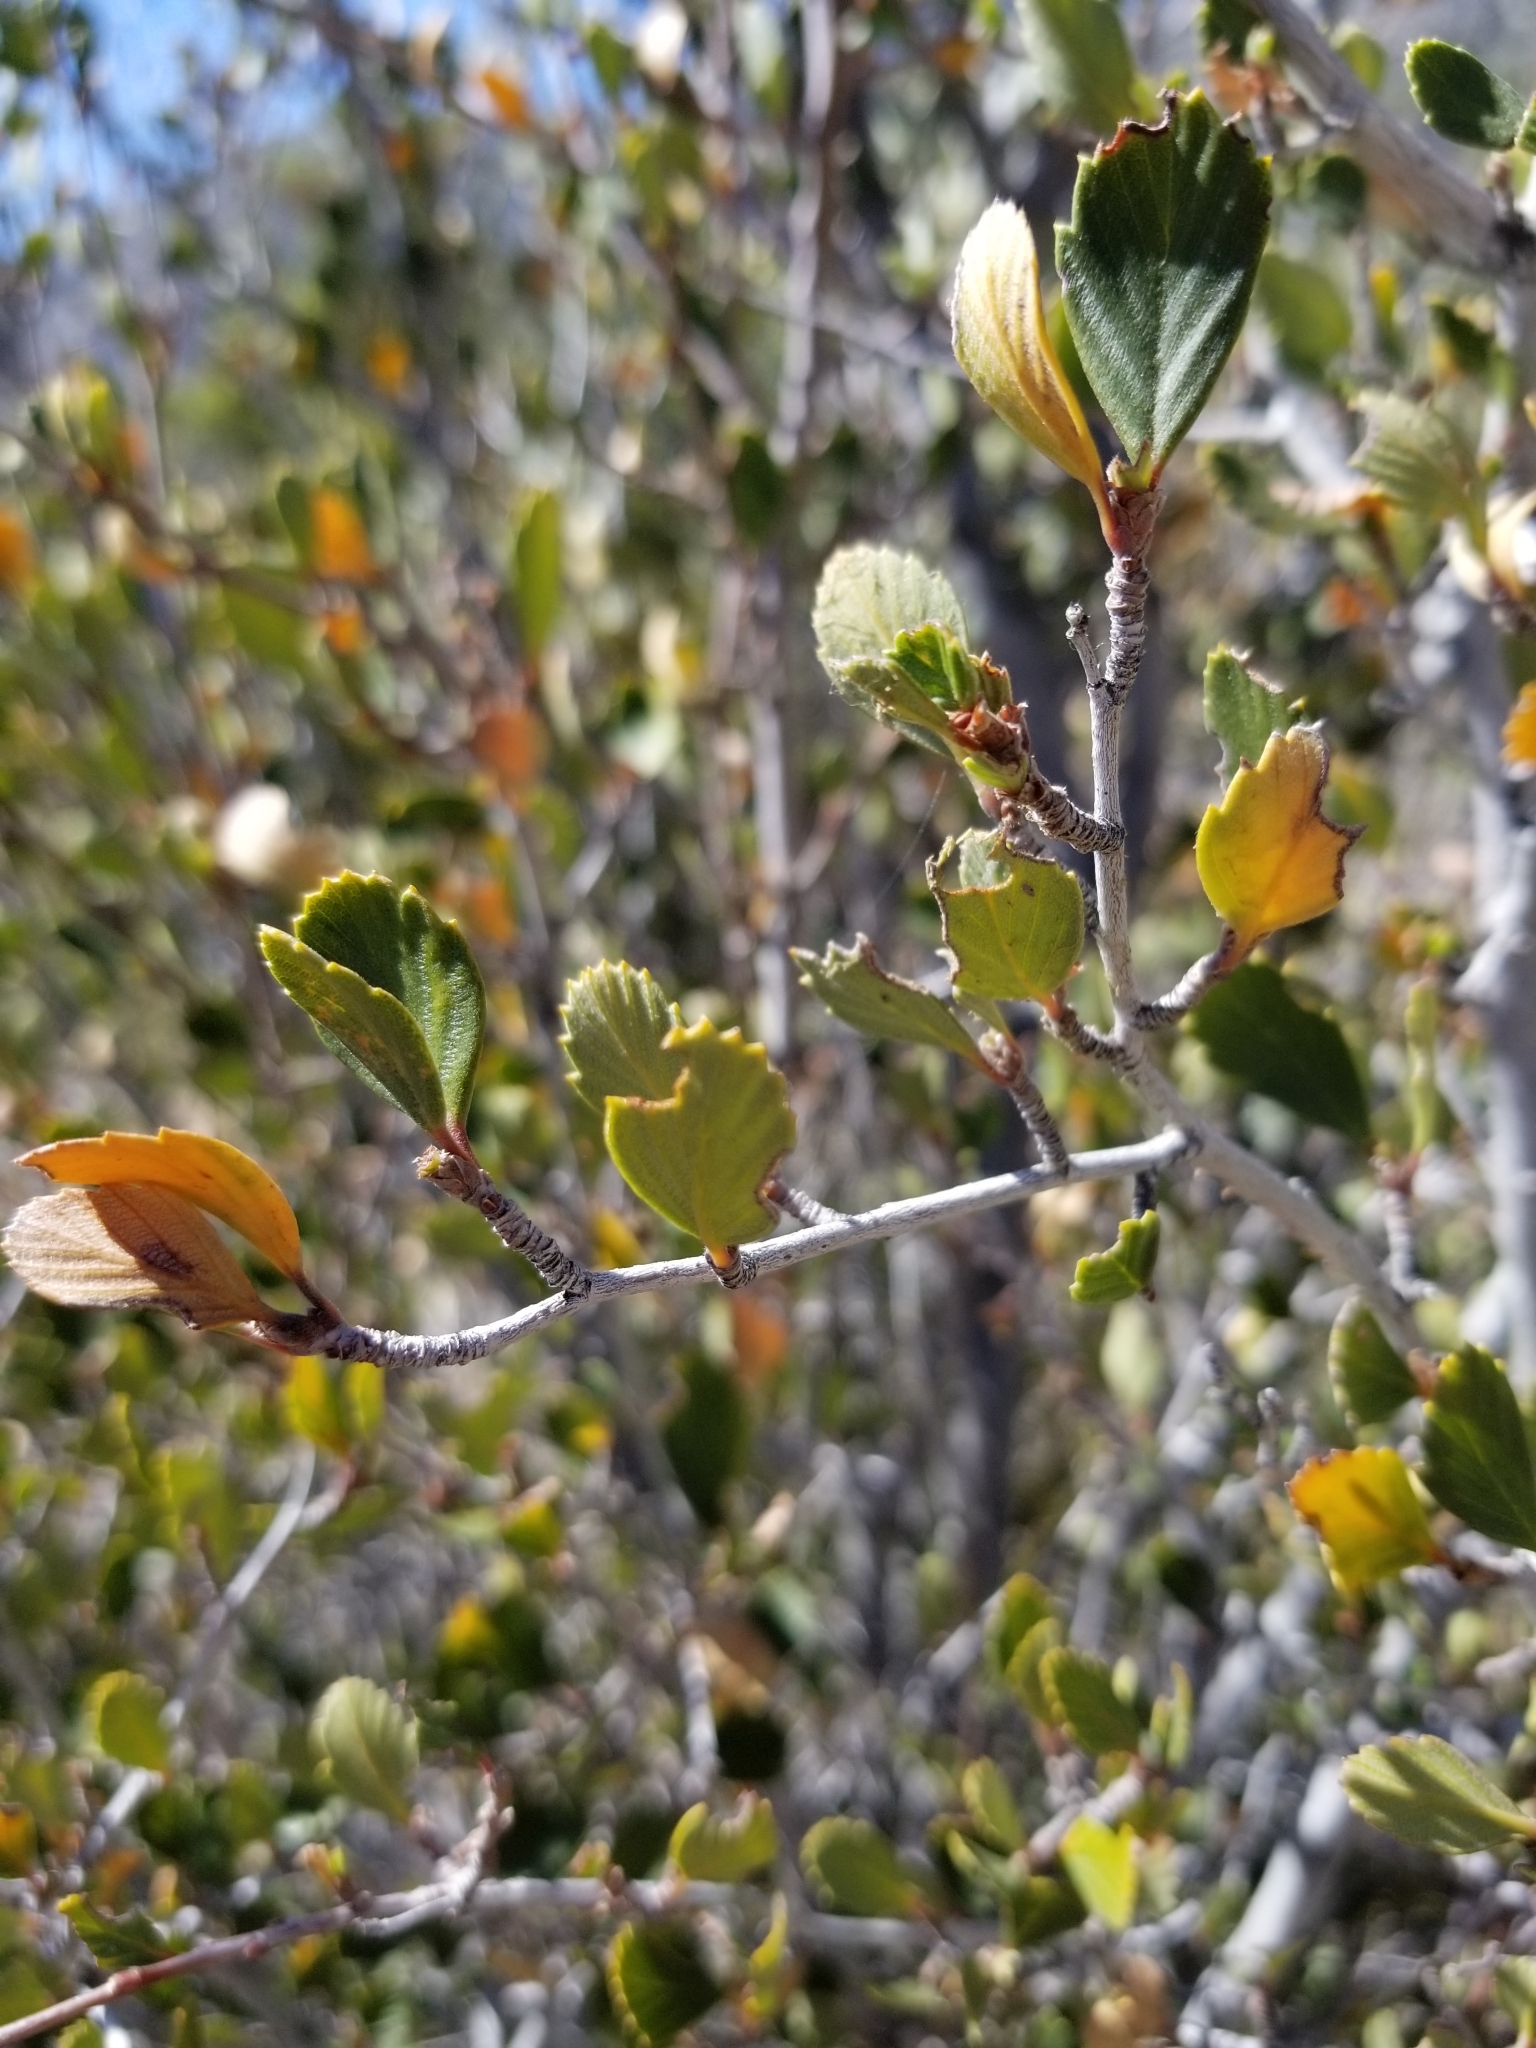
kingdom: Plantae
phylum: Tracheophyta
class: Magnoliopsida
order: Rosales
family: Rosaceae
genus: Cercocarpus
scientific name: Cercocarpus betuloides
